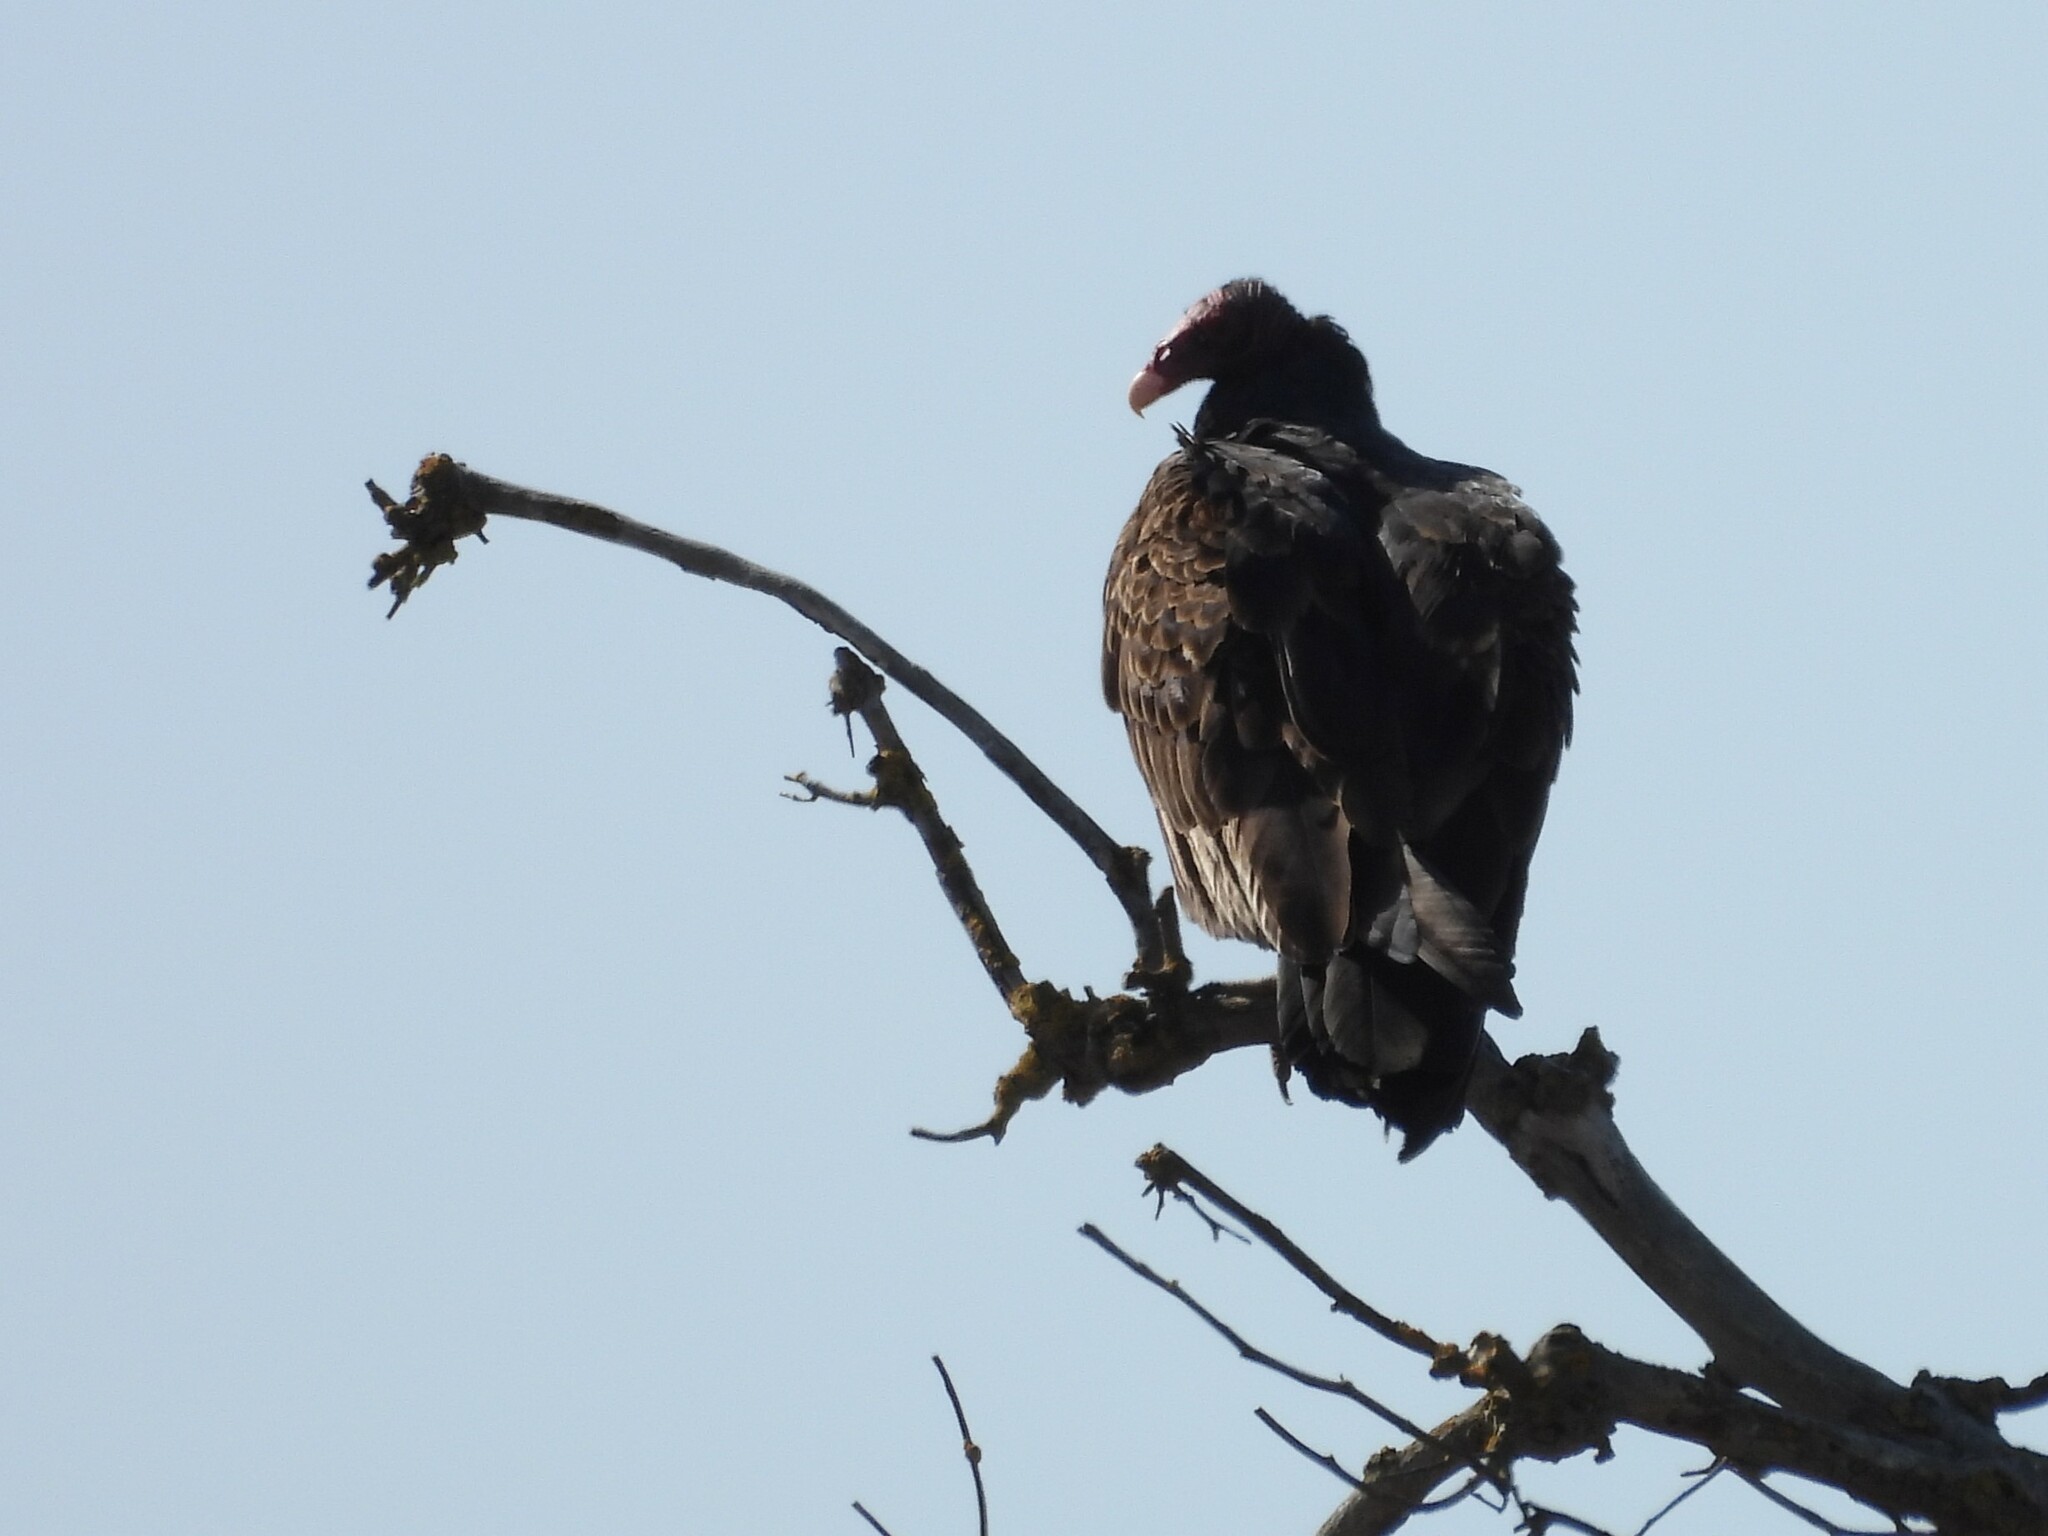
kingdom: Animalia
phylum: Chordata
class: Aves
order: Accipitriformes
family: Cathartidae
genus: Cathartes
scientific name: Cathartes aura
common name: Turkey vulture
